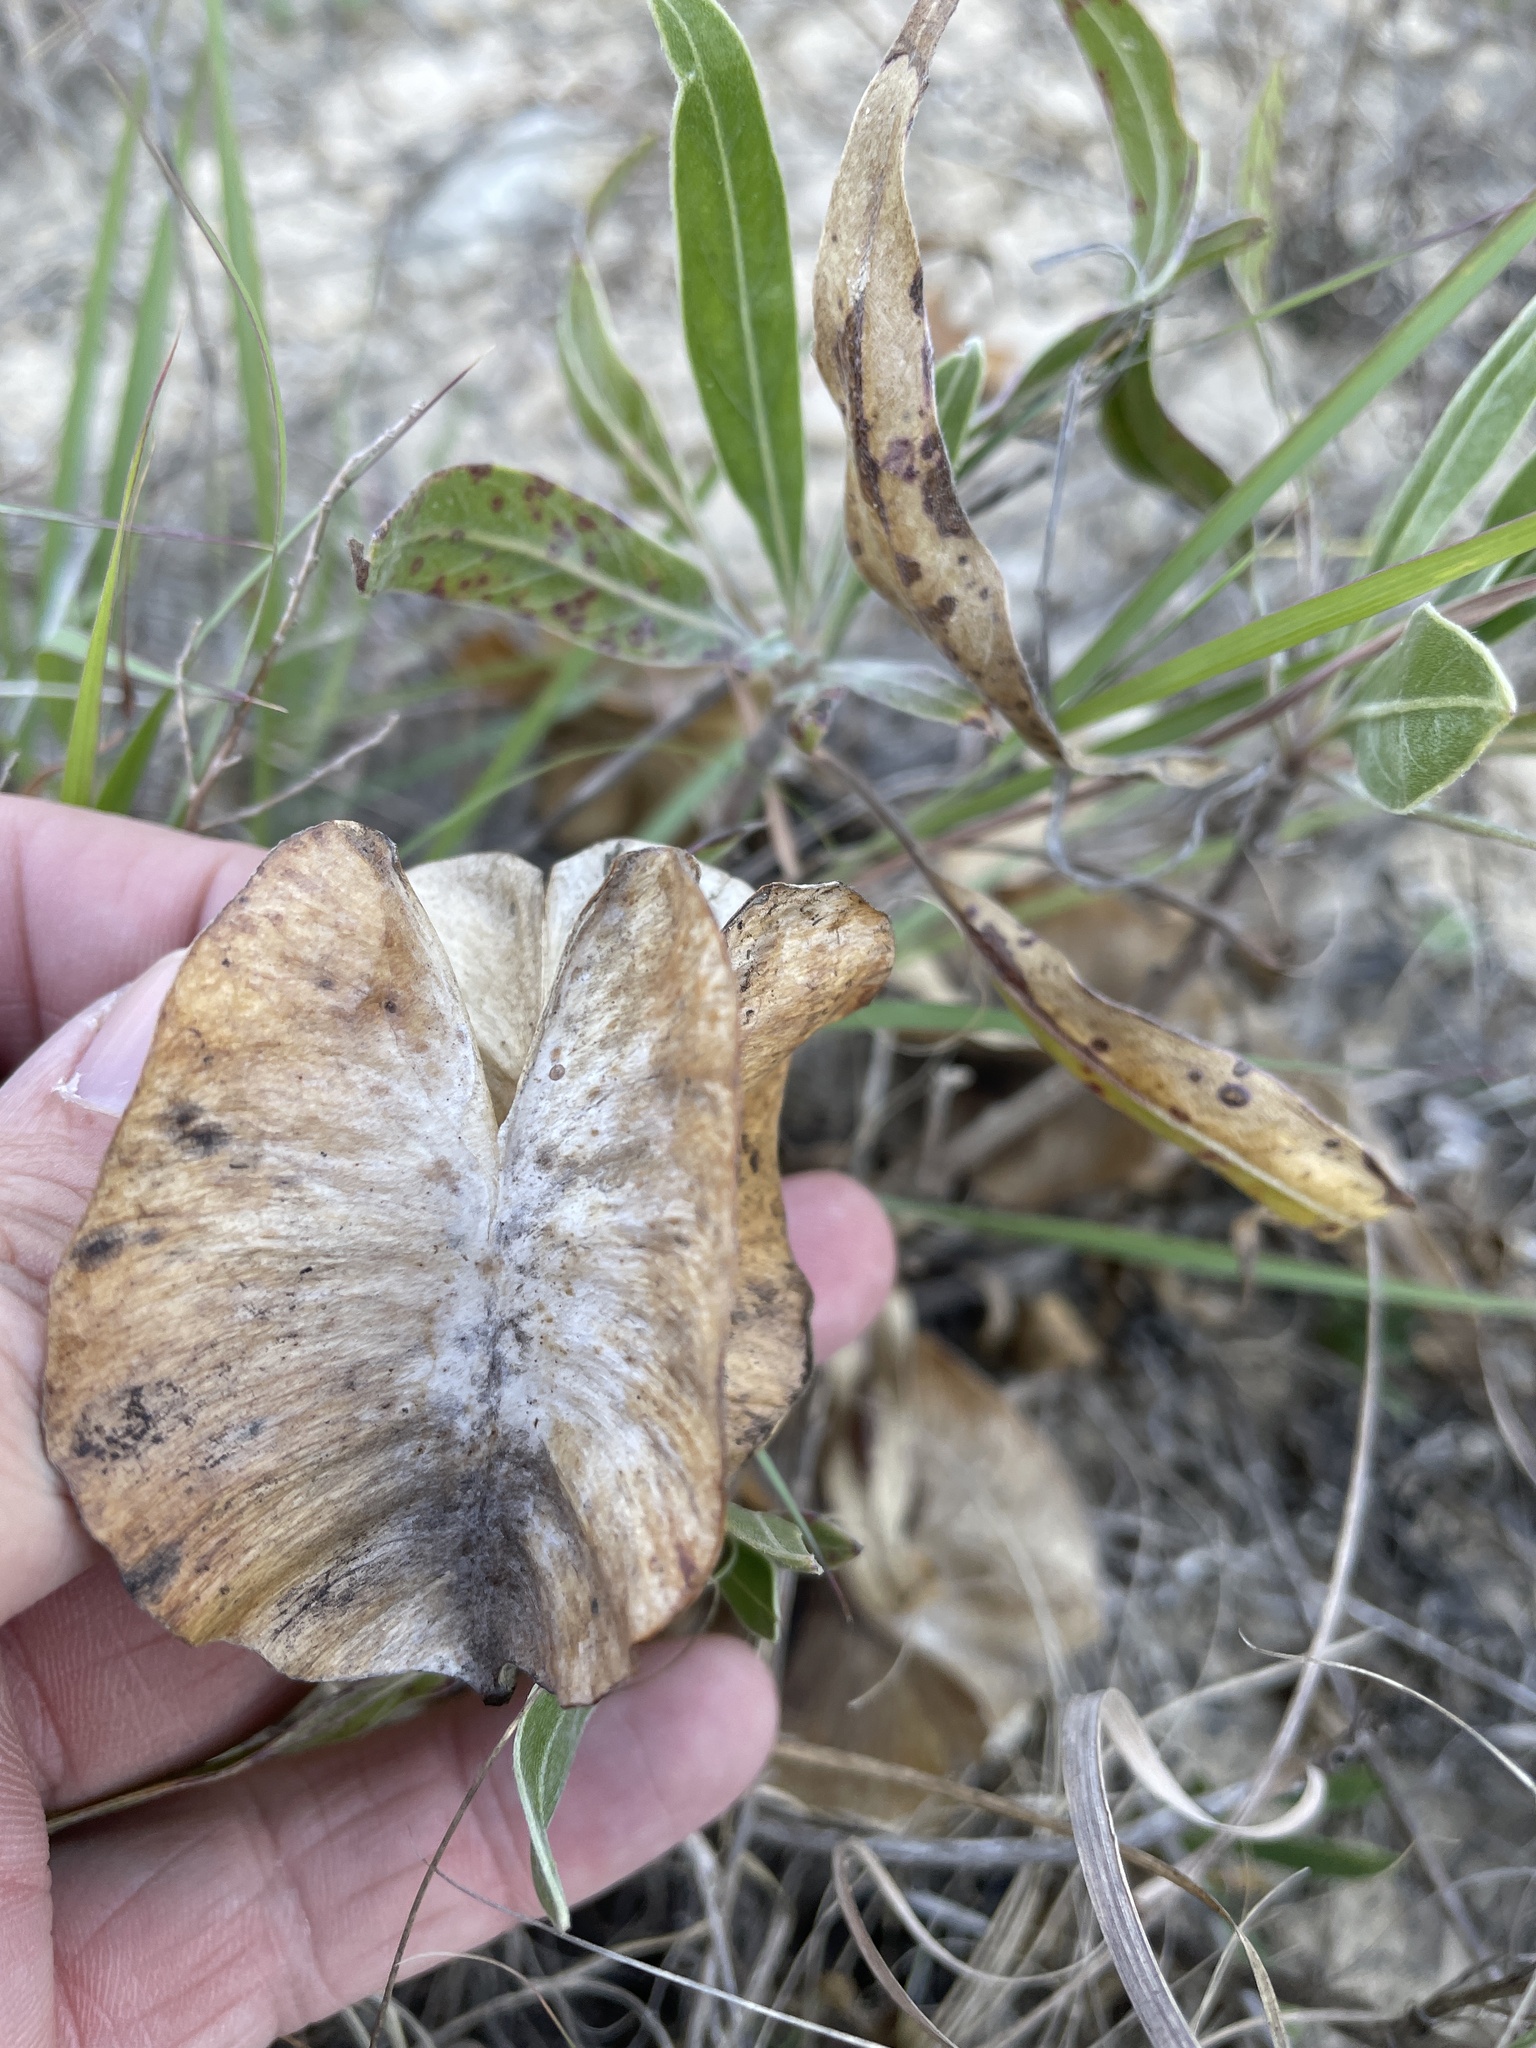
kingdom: Plantae
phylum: Tracheophyta
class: Magnoliopsida
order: Myrtales
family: Onagraceae
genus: Oenothera
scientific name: Oenothera macrocarpa
